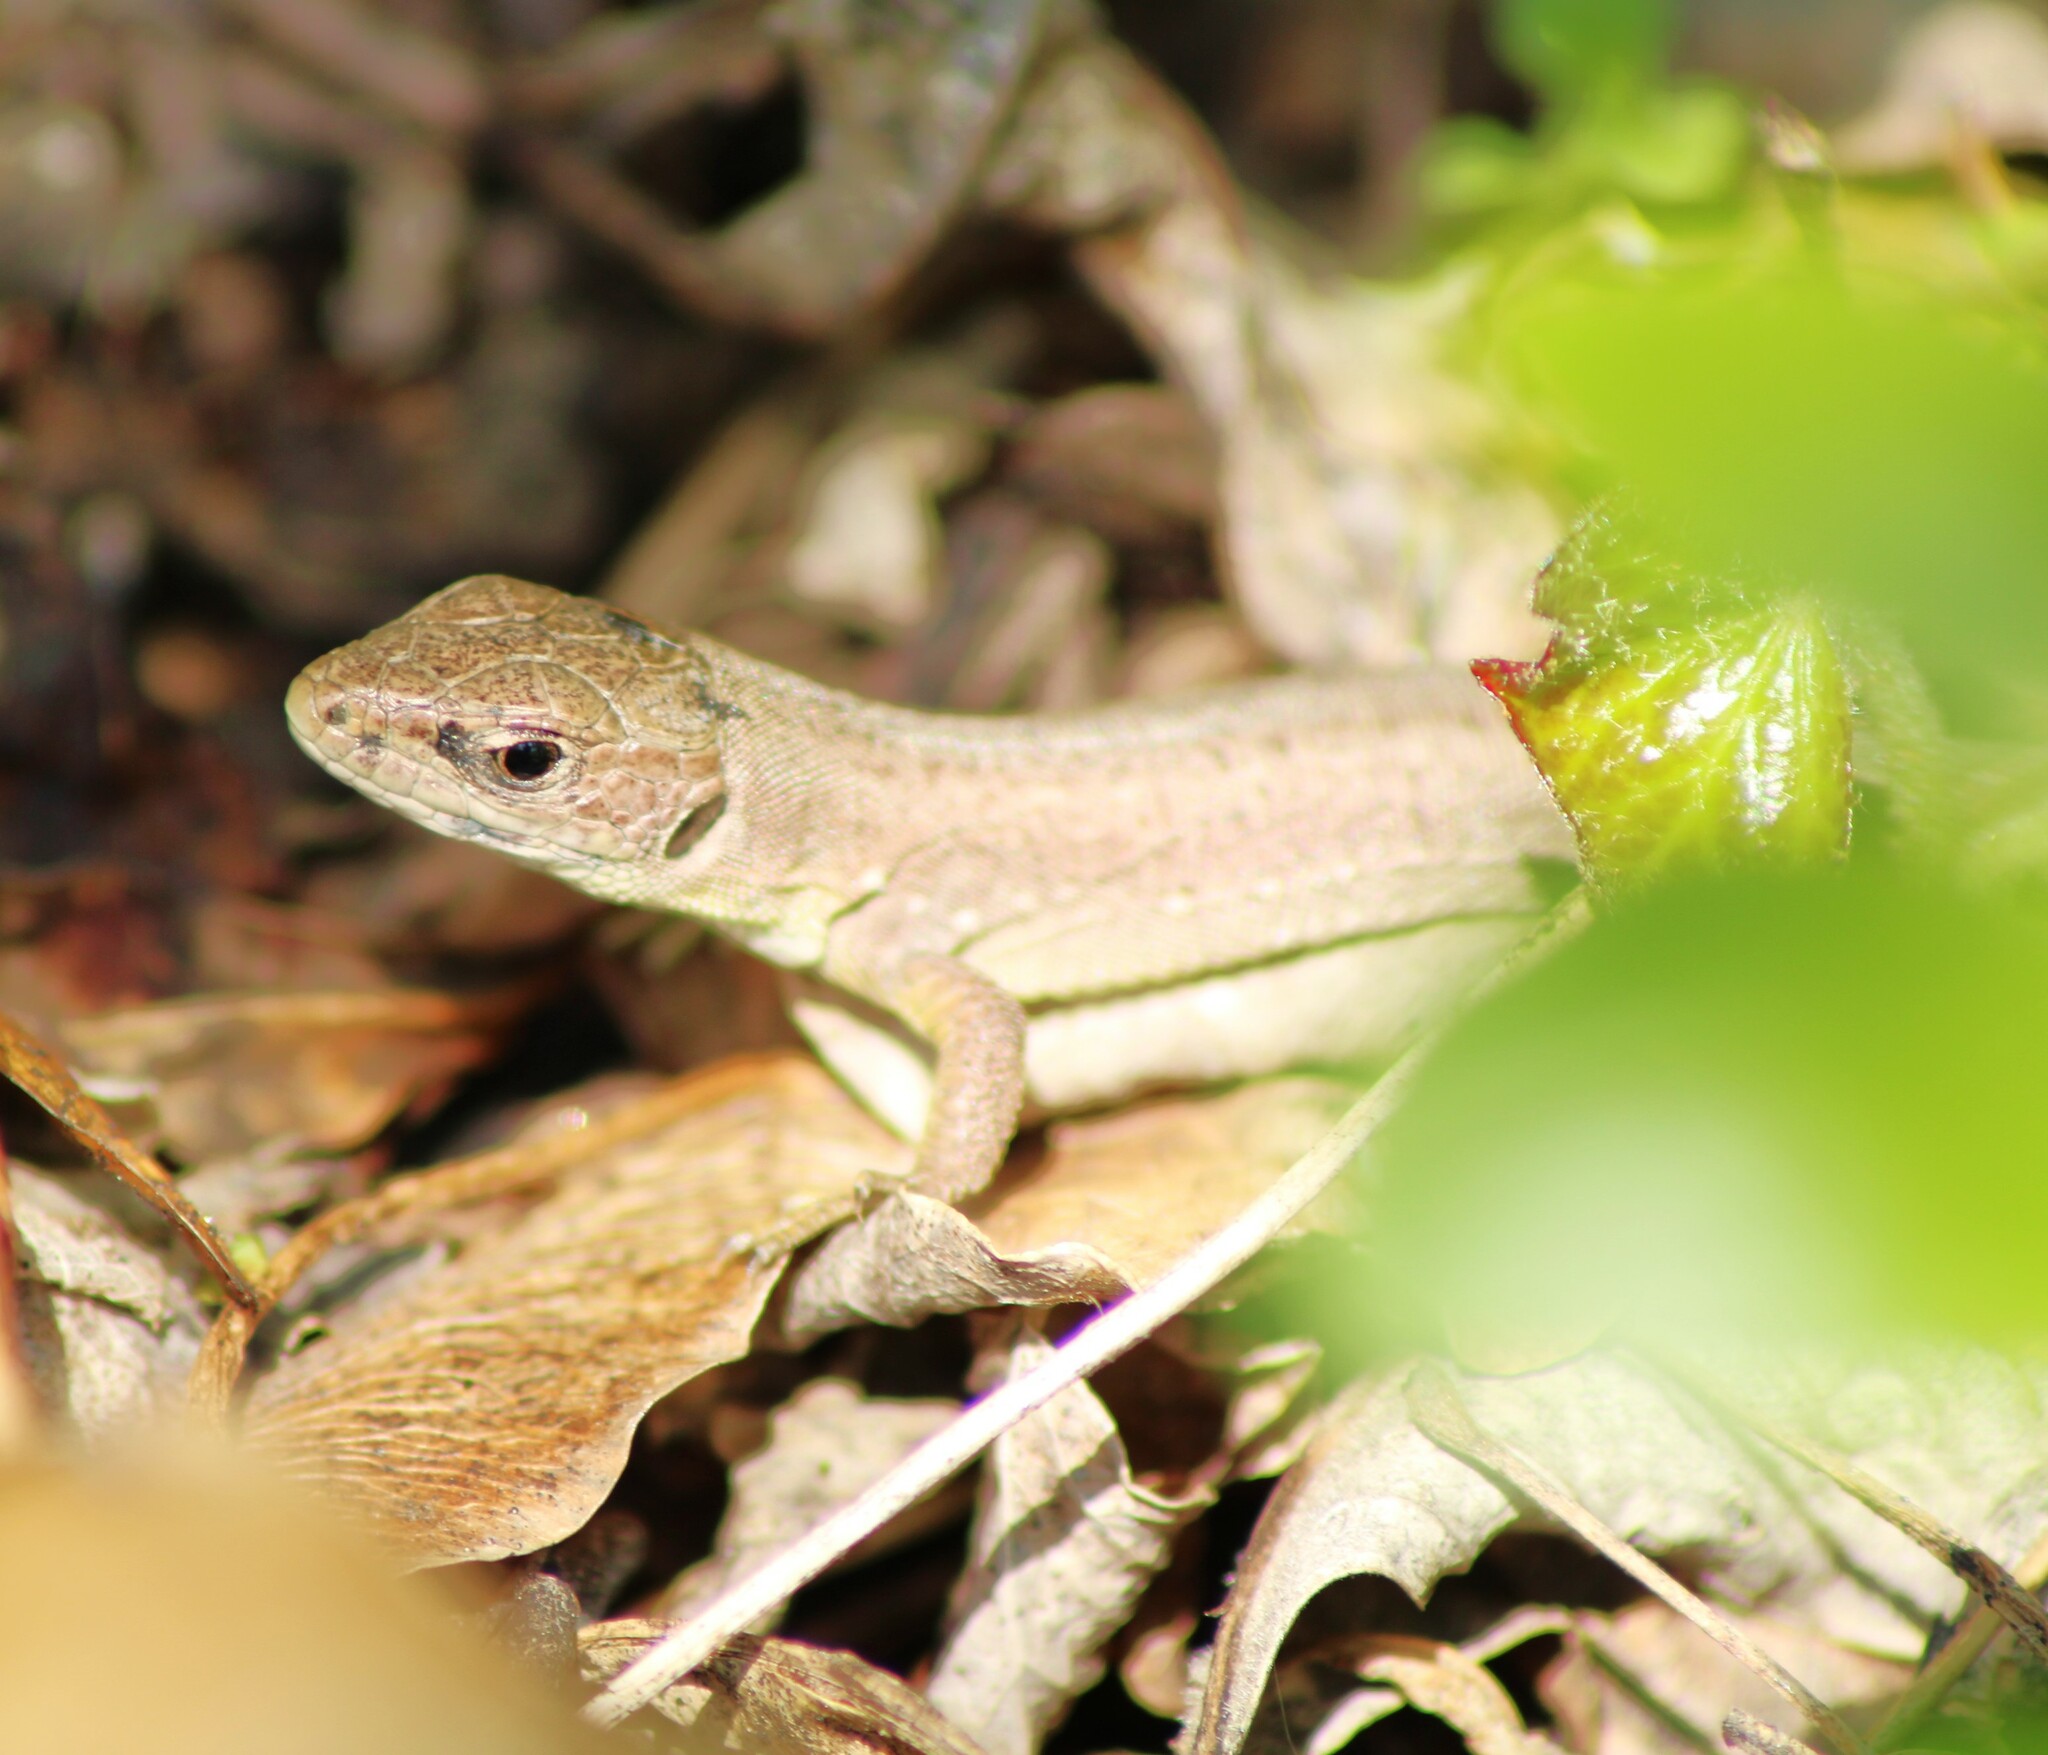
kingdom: Animalia
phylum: Chordata
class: Squamata
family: Lacertidae
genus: Lacerta
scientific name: Lacerta viridis
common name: European green lizard
